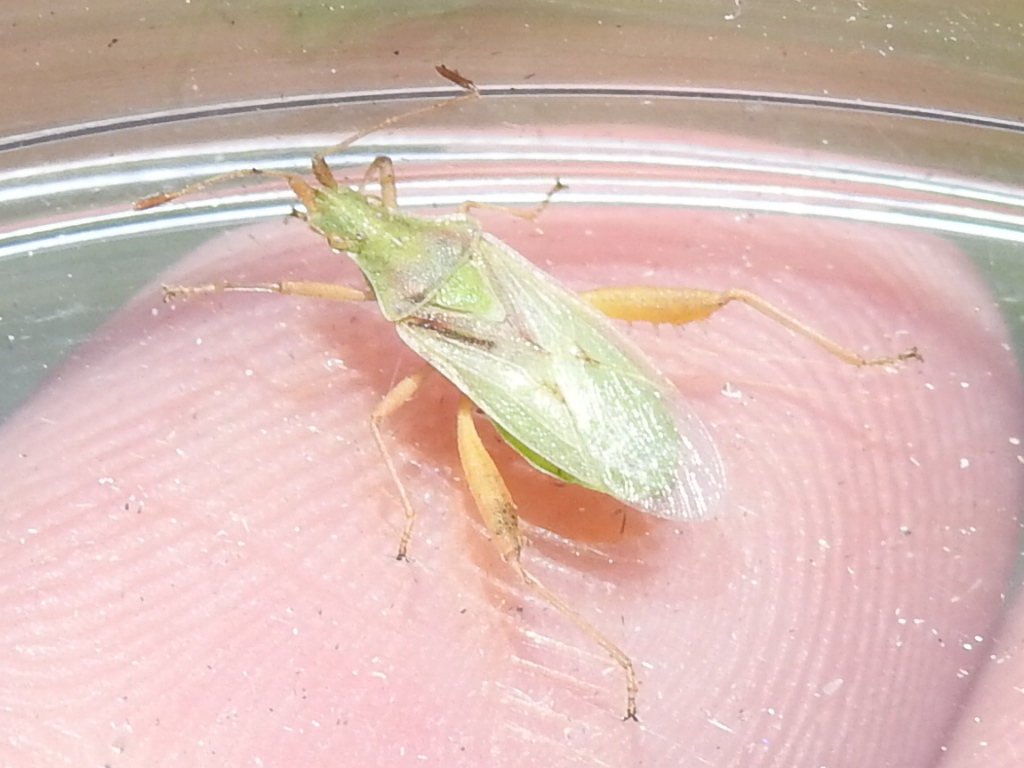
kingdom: Animalia
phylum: Arthropoda
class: Insecta
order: Hemiptera
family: Rhopalidae
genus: Harmostes
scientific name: Harmostes reflexulus
